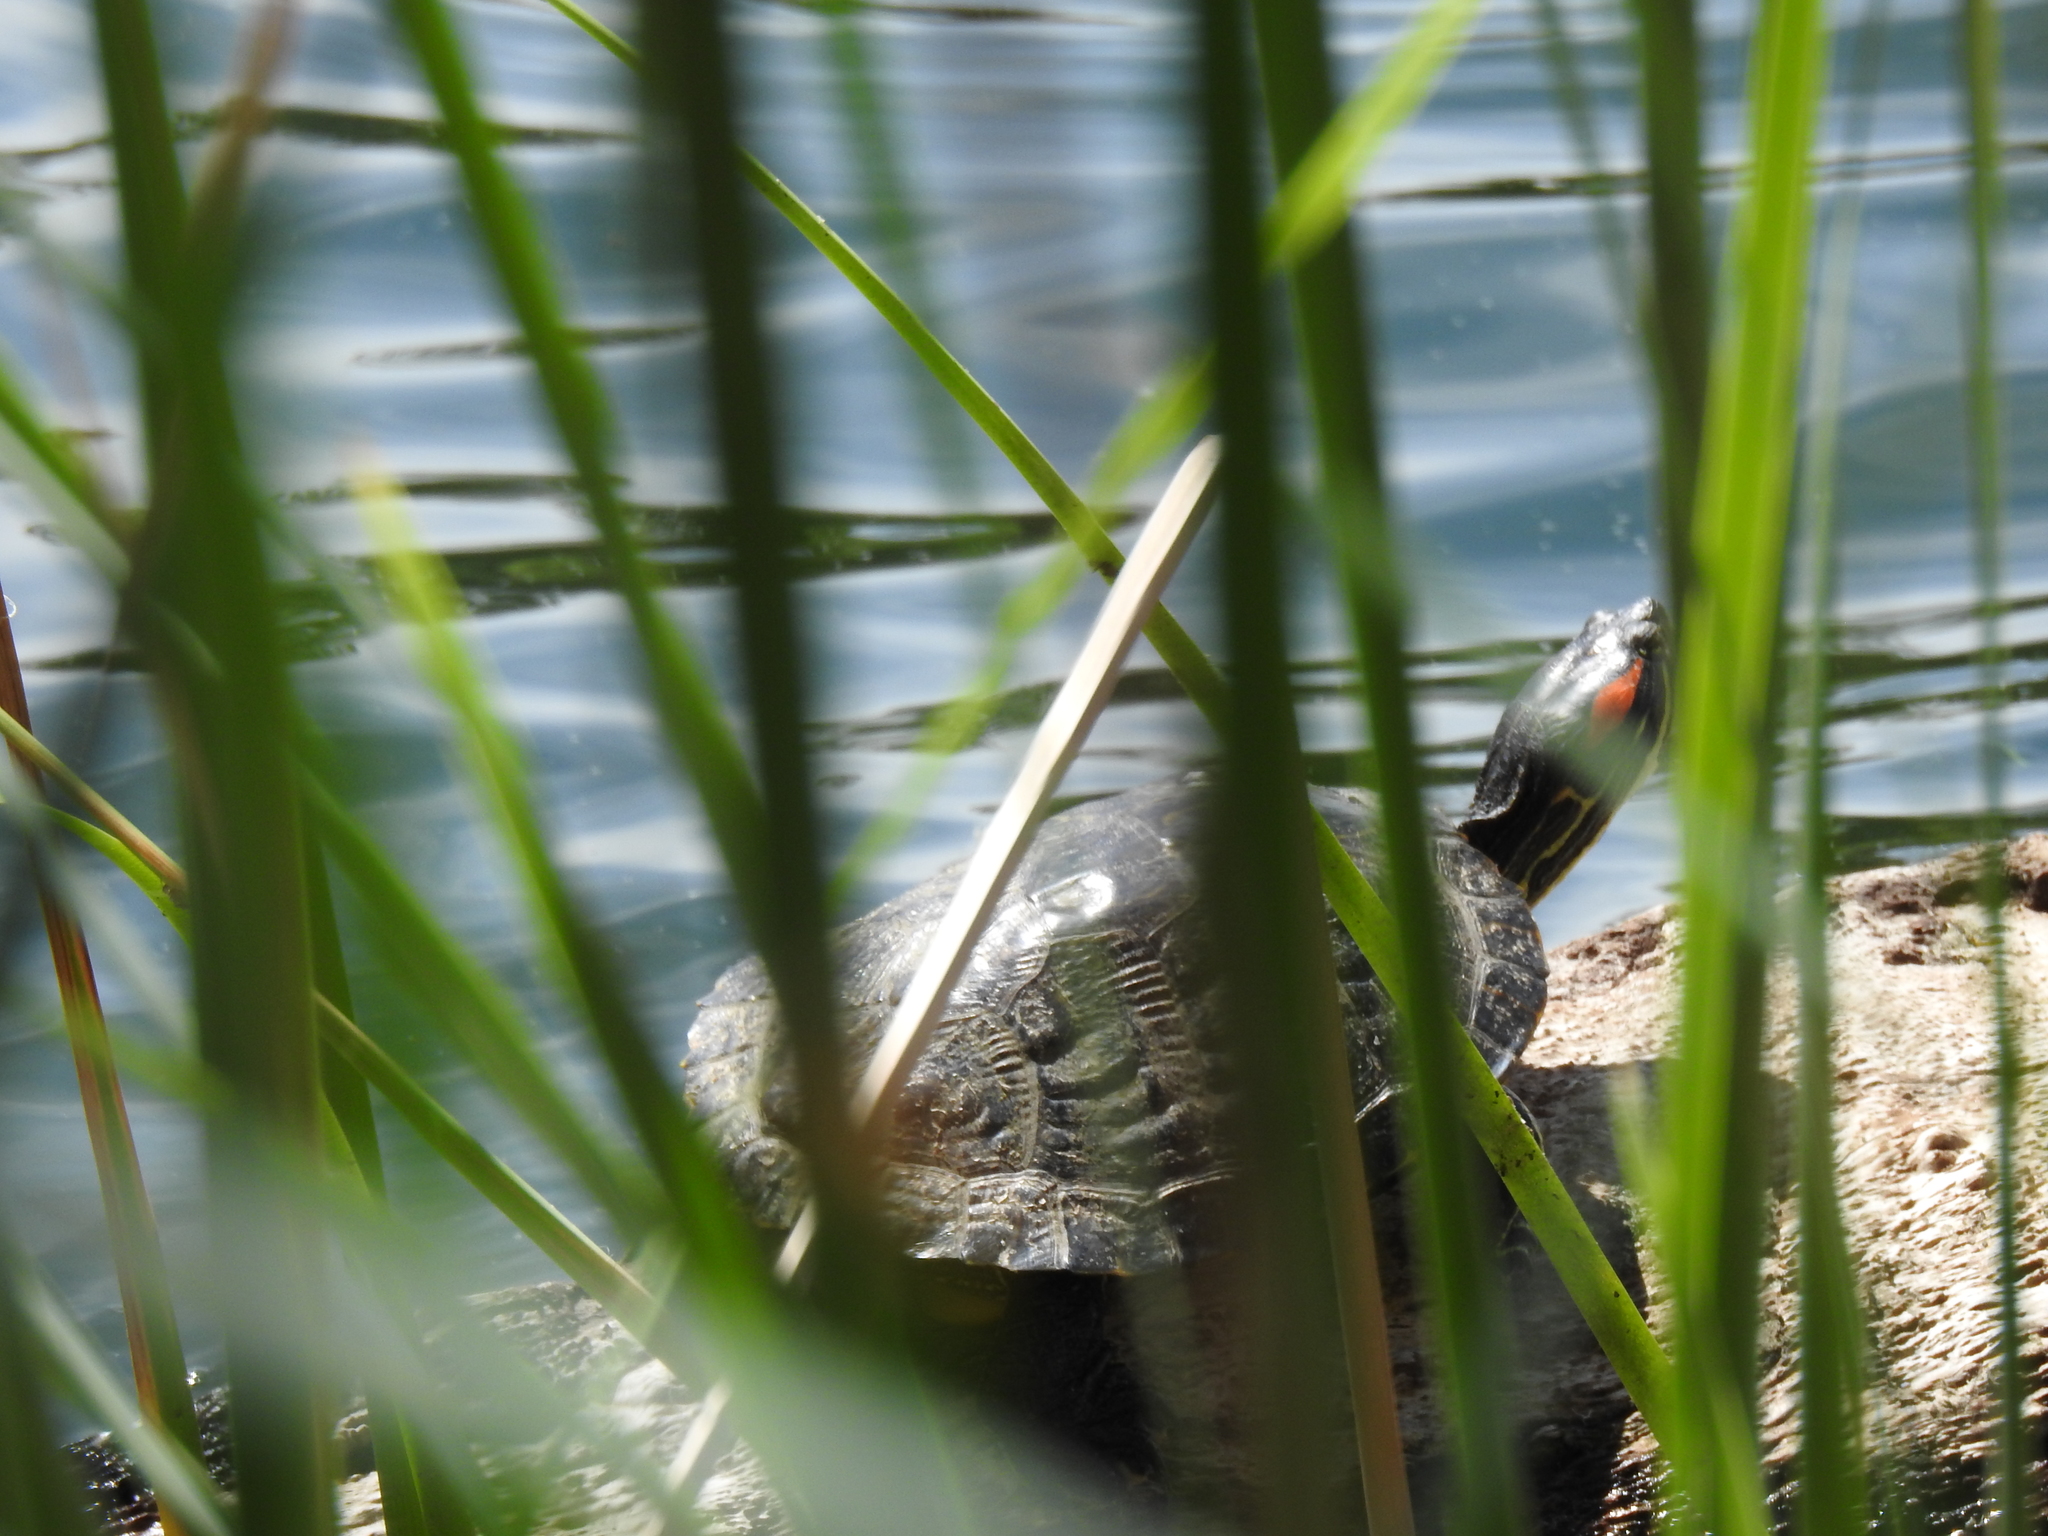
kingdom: Animalia
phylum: Chordata
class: Testudines
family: Emydidae
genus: Trachemys
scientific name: Trachemys scripta
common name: Slider
